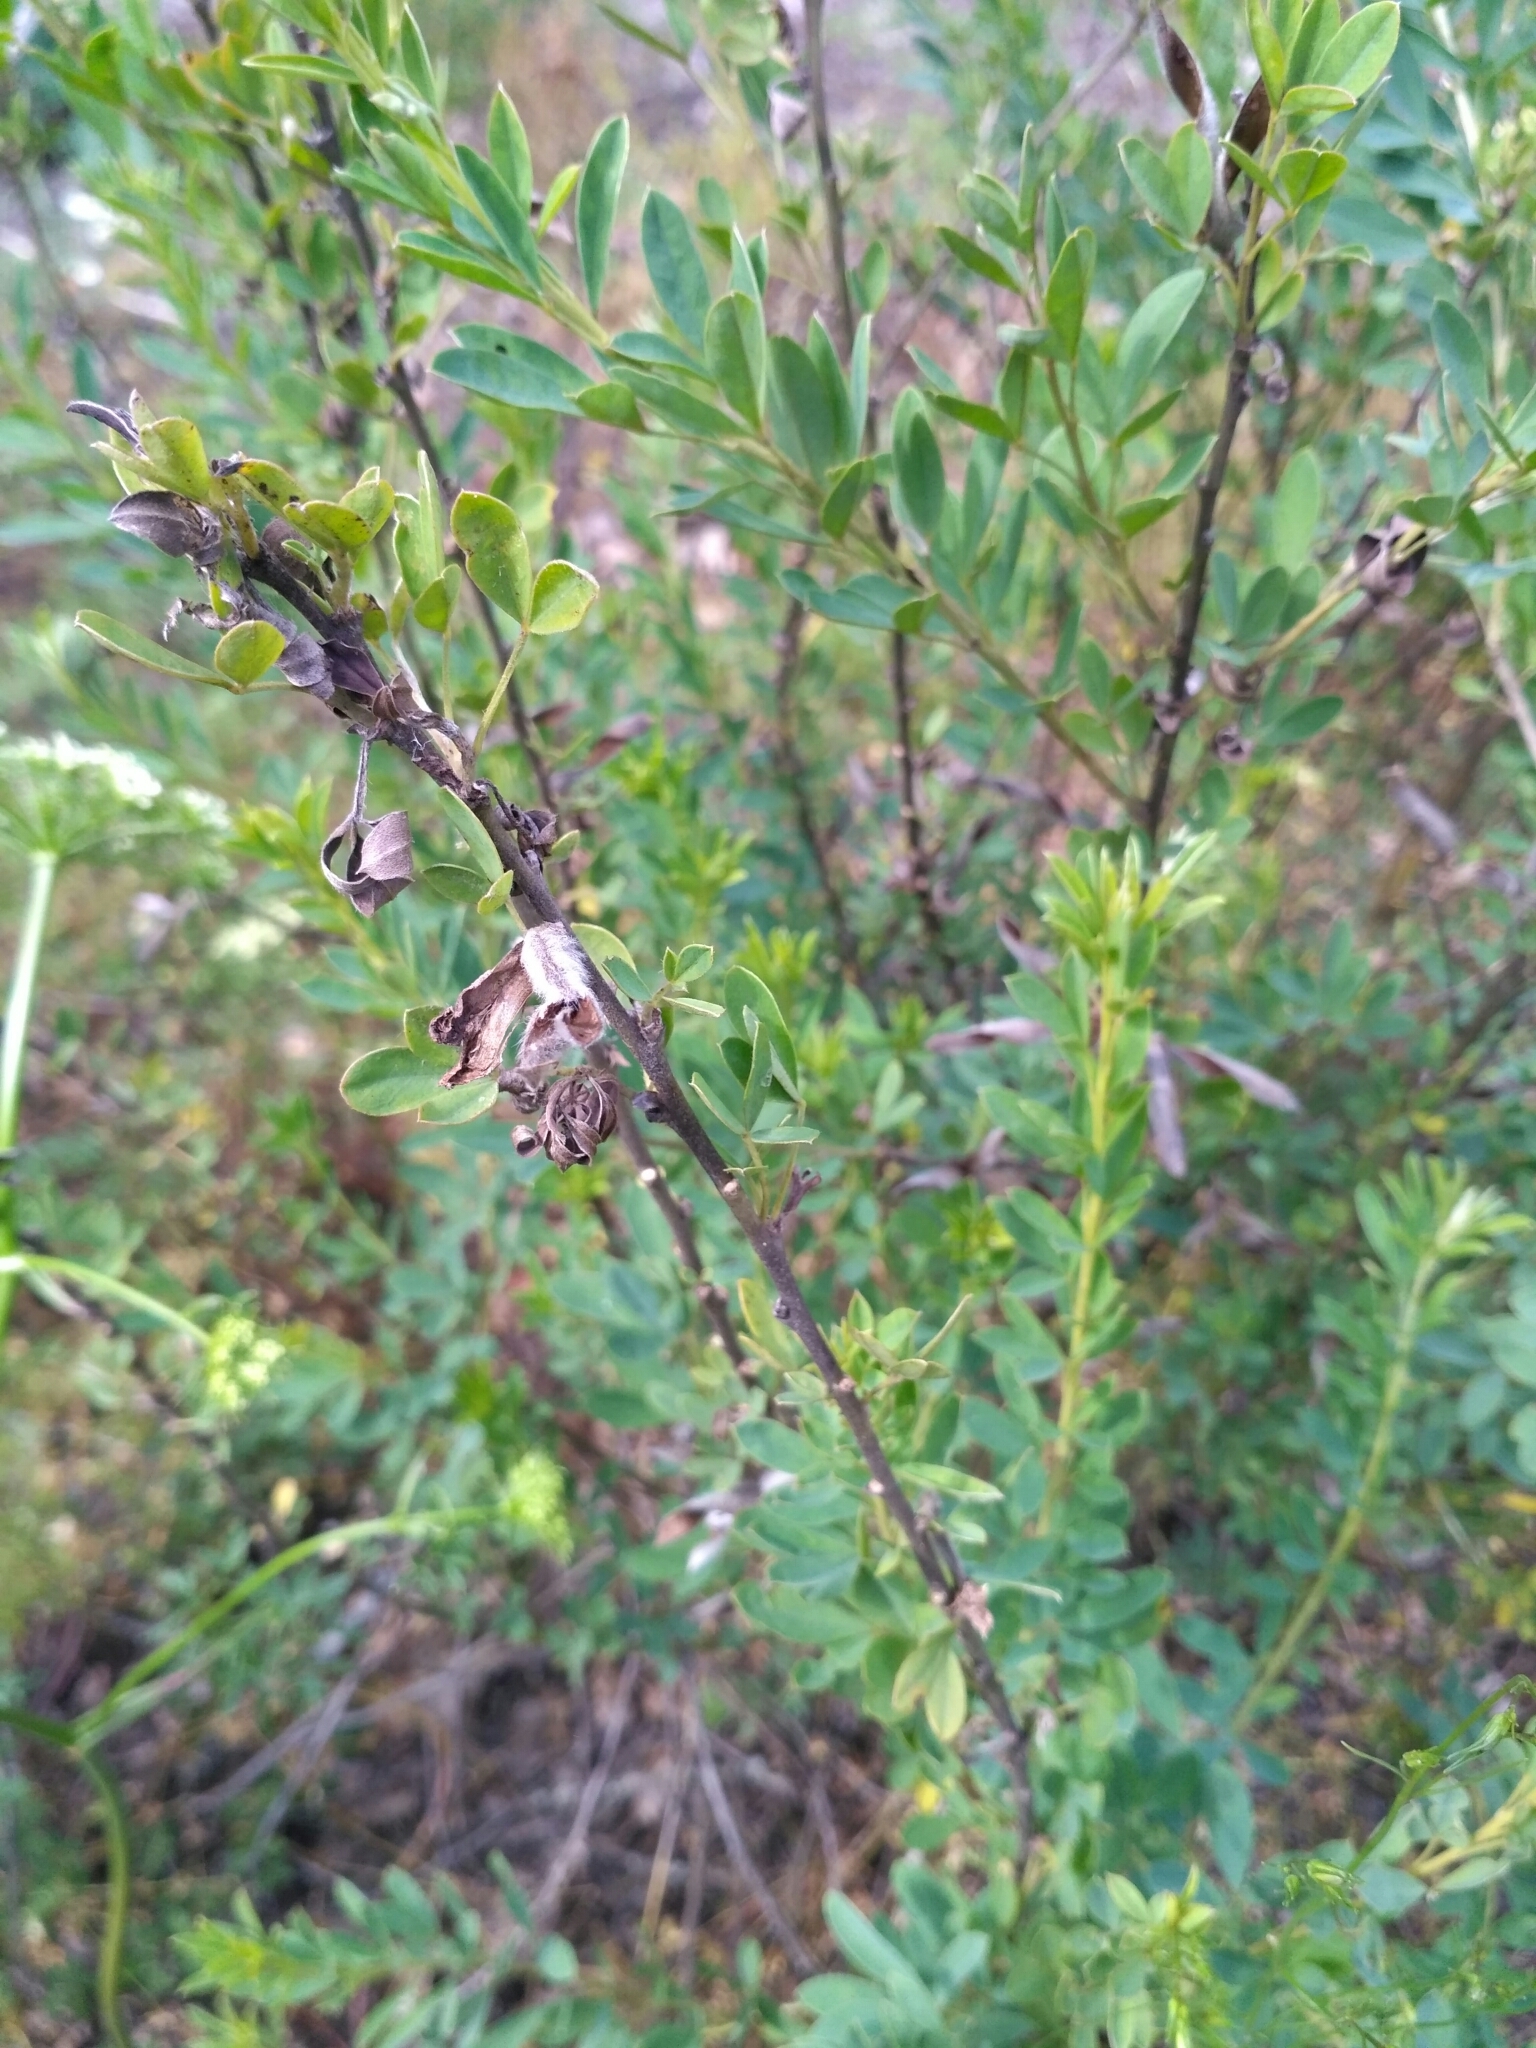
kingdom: Plantae
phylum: Tracheophyta
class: Magnoliopsida
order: Fabales
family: Fabaceae
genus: Chamaecytisus
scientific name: Chamaecytisus ruthenicus
